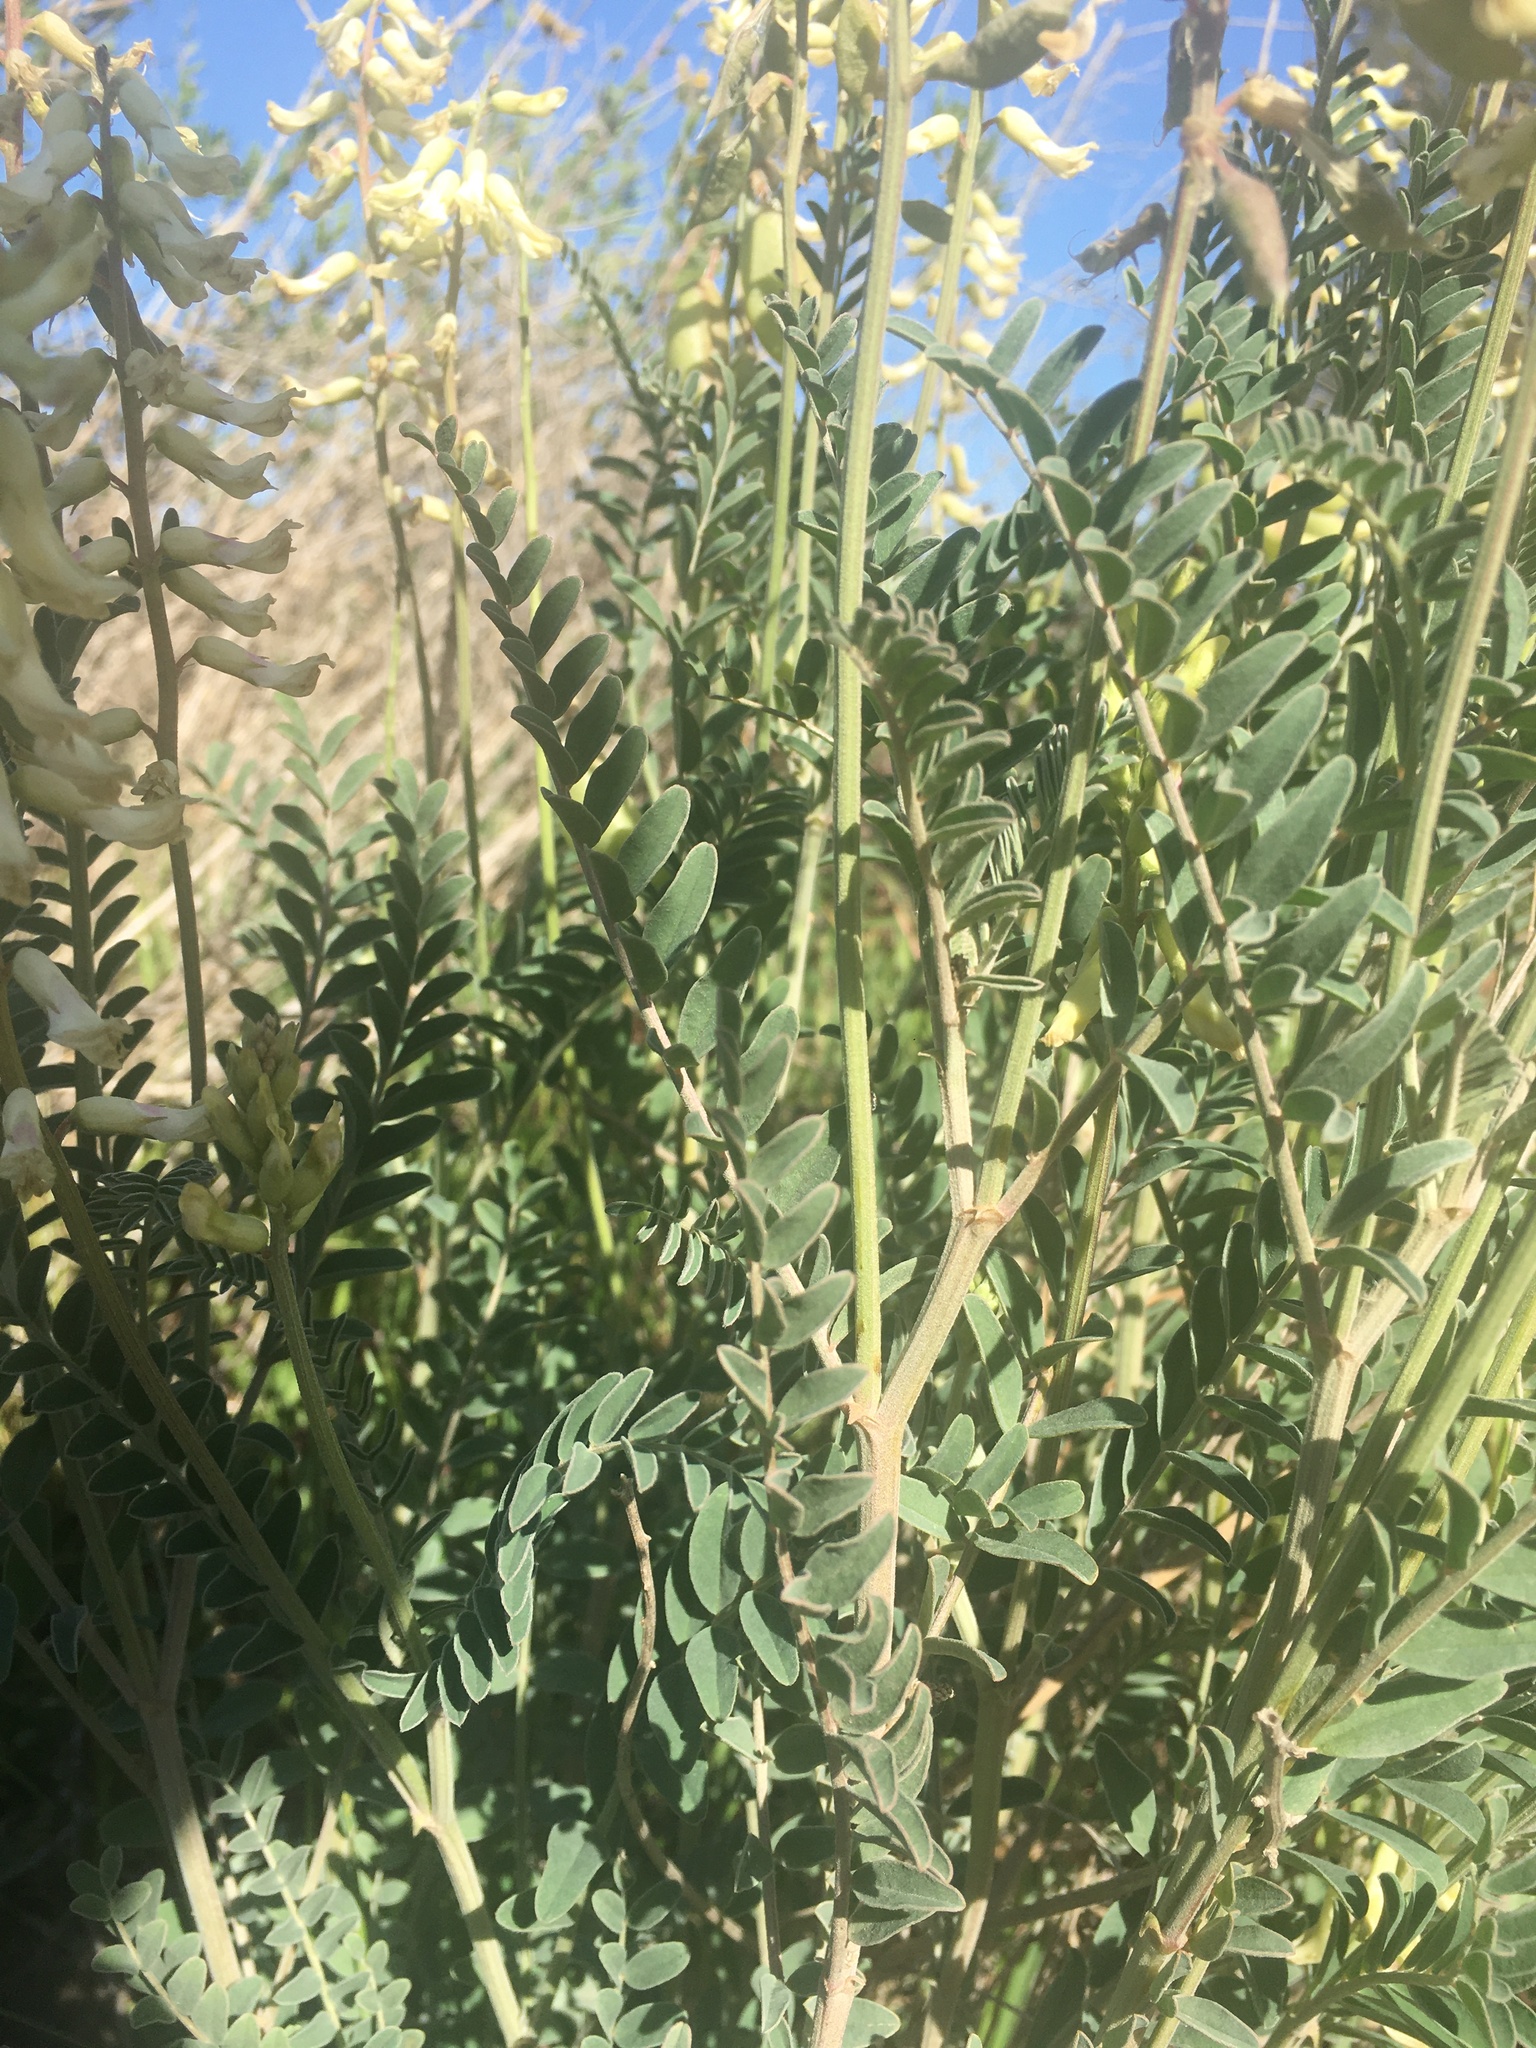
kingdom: Plantae
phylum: Tracheophyta
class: Magnoliopsida
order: Fabales
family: Fabaceae
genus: Astragalus
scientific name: Astragalus trichopodus
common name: Santa barbara milk-vetch
